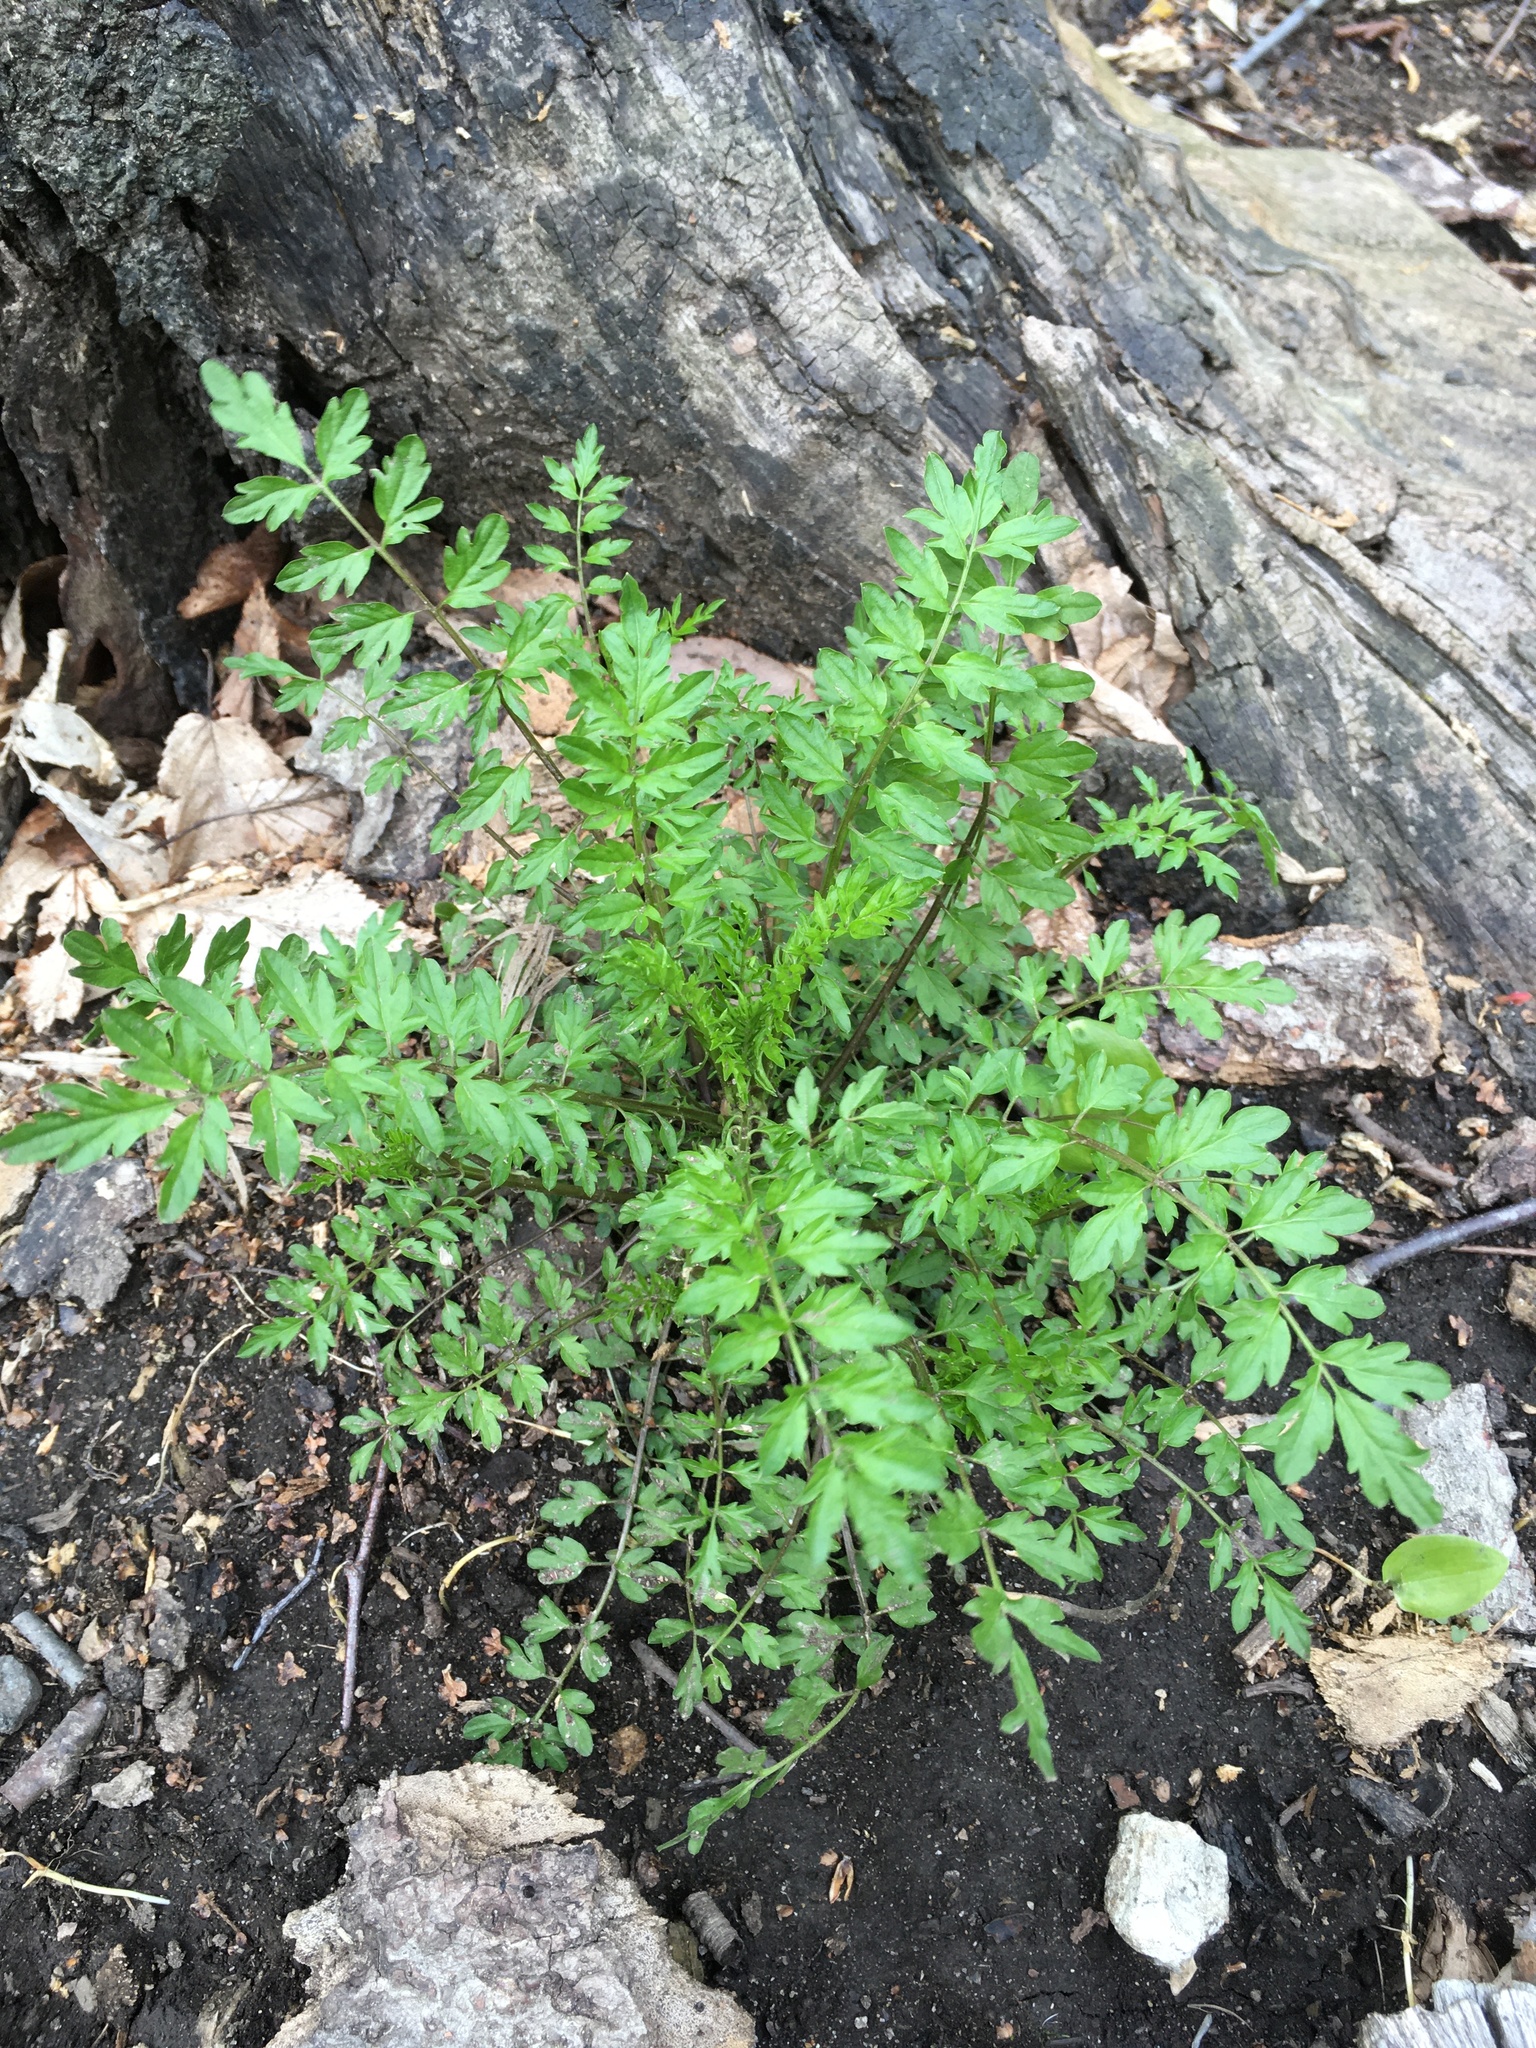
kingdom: Plantae
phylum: Tracheophyta
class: Magnoliopsida
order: Brassicales
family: Brassicaceae
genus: Cardamine
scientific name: Cardamine impatiens
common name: Narrow-leaved bitter-cress
